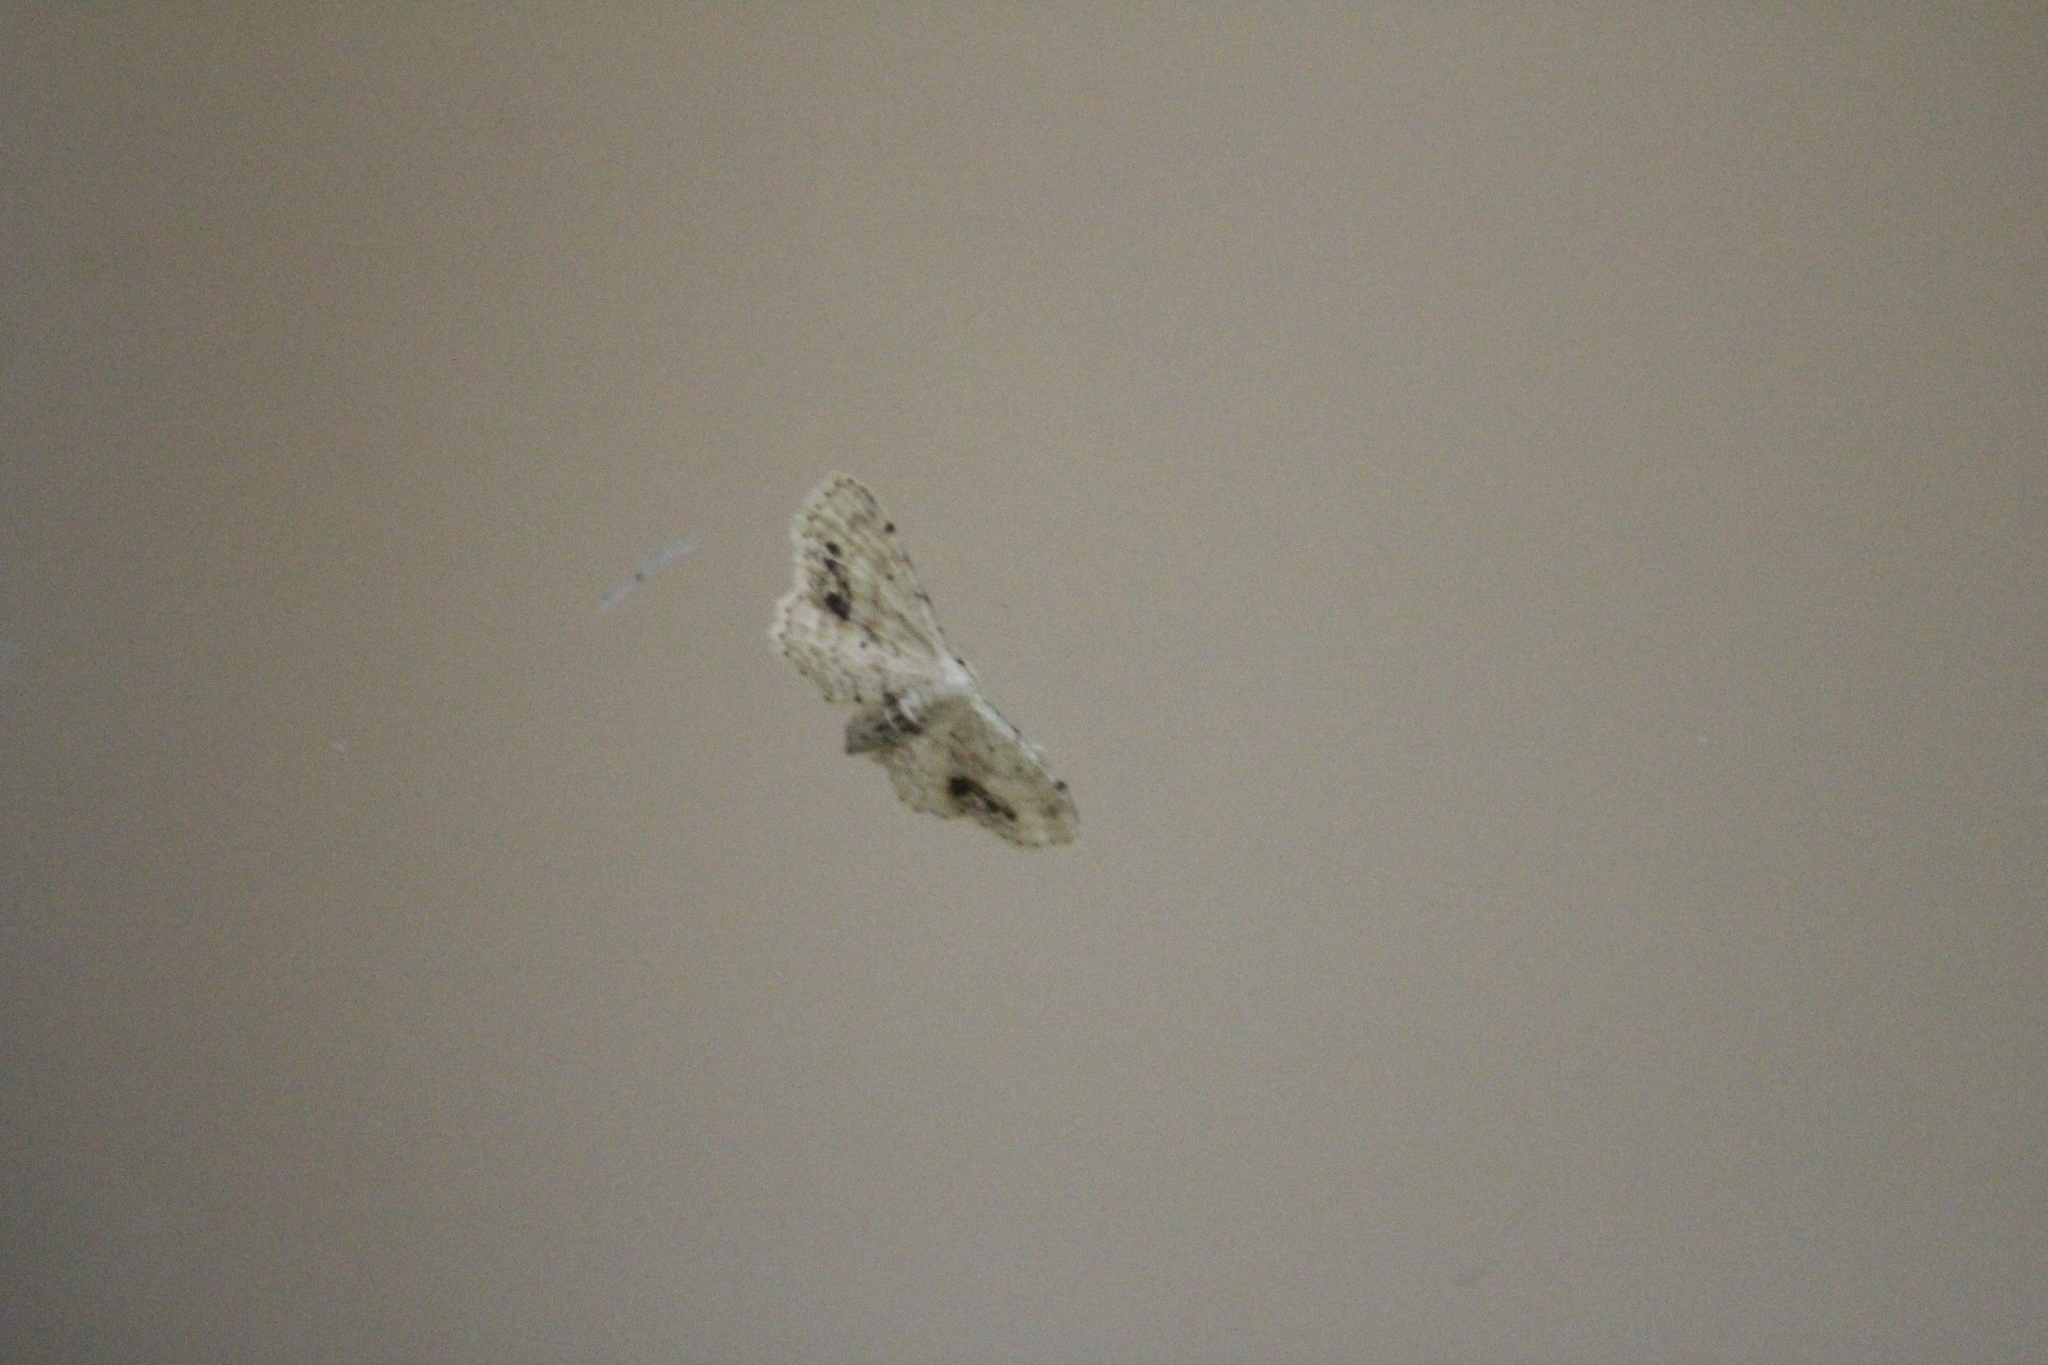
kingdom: Animalia
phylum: Arthropoda
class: Insecta
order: Lepidoptera
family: Geometridae
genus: Idaea
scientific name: Idaea dimidiata
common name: Single-dotted wave
